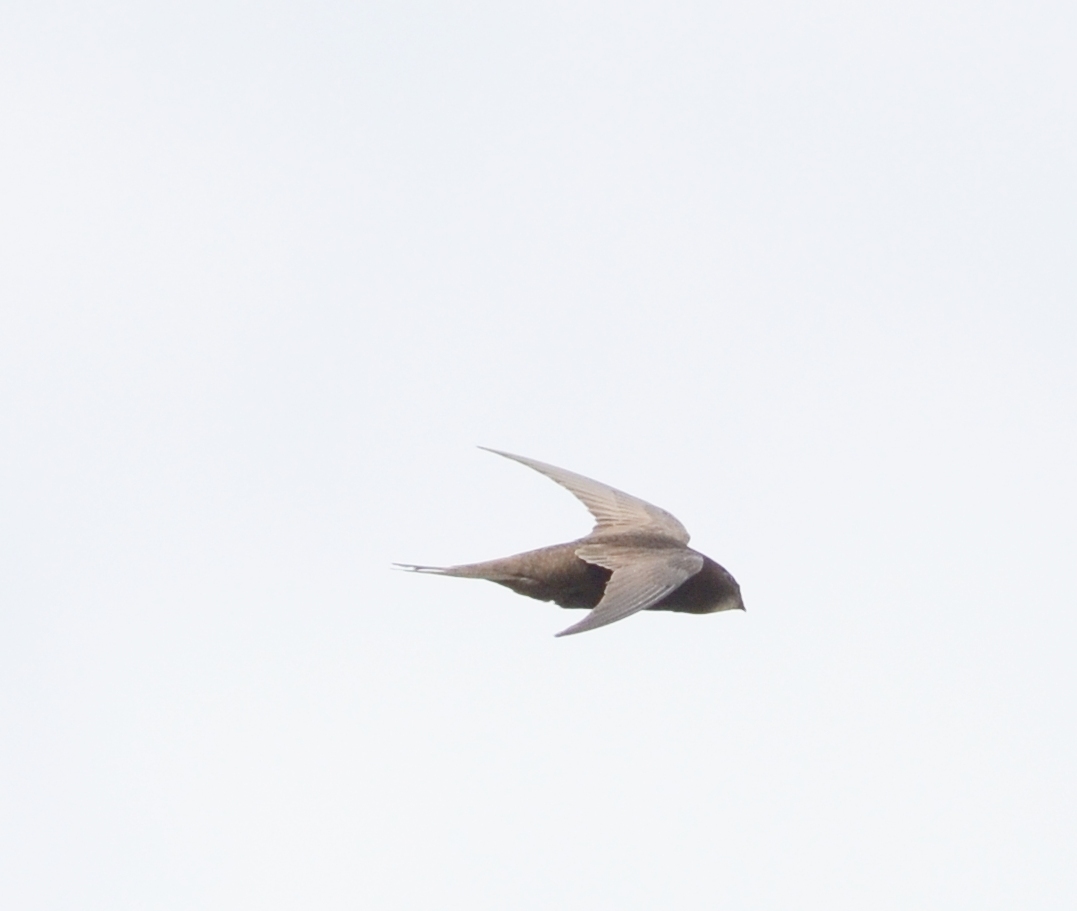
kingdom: Animalia
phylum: Chordata
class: Aves
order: Apodiformes
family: Apodidae
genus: Apus
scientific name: Apus apus
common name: Common swift
